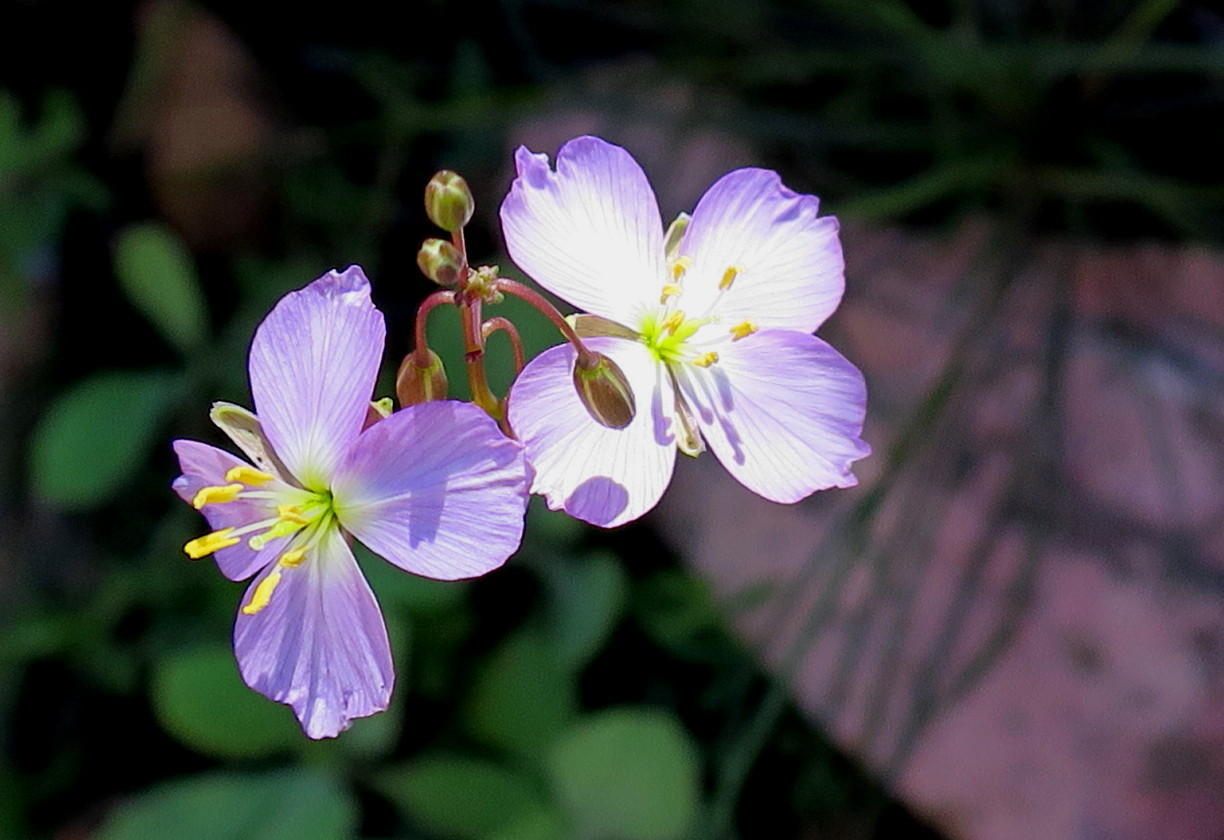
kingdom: Plantae
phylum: Tracheophyta
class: Magnoliopsida
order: Brassicales
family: Brassicaceae
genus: Heliophila
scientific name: Heliophila carnosa
